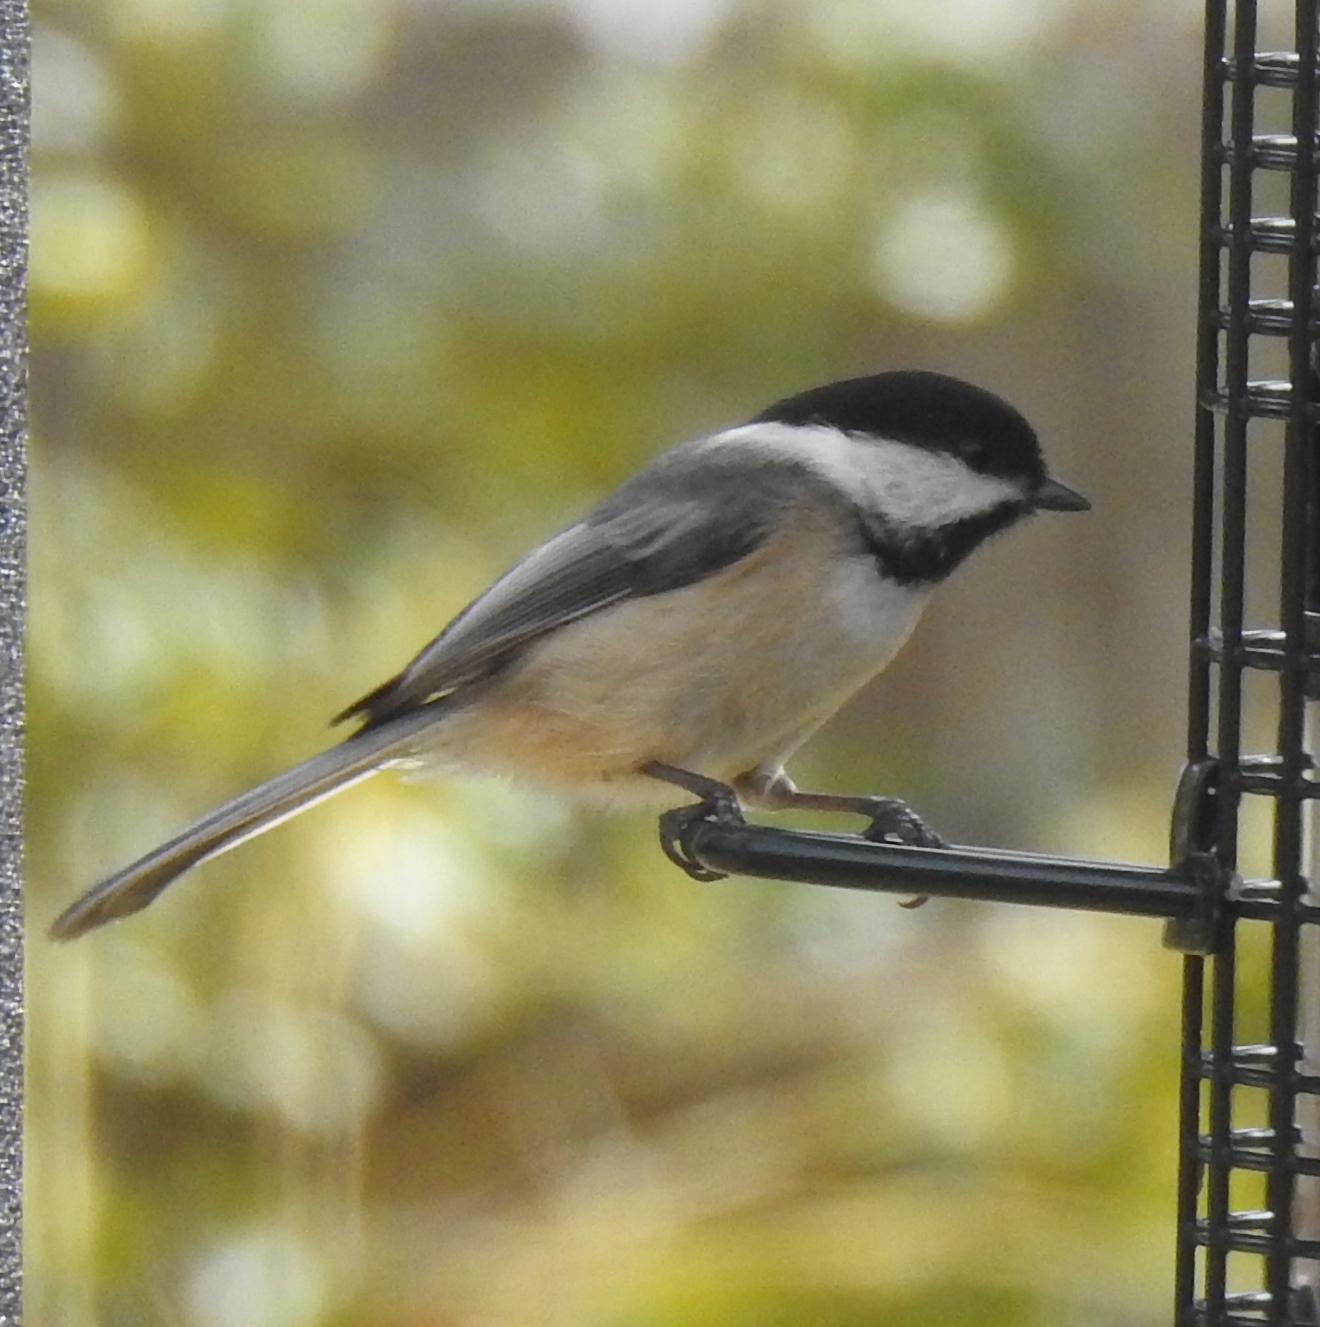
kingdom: Animalia
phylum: Chordata
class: Aves
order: Passeriformes
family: Paridae
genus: Poecile
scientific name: Poecile atricapillus
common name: Black-capped chickadee
